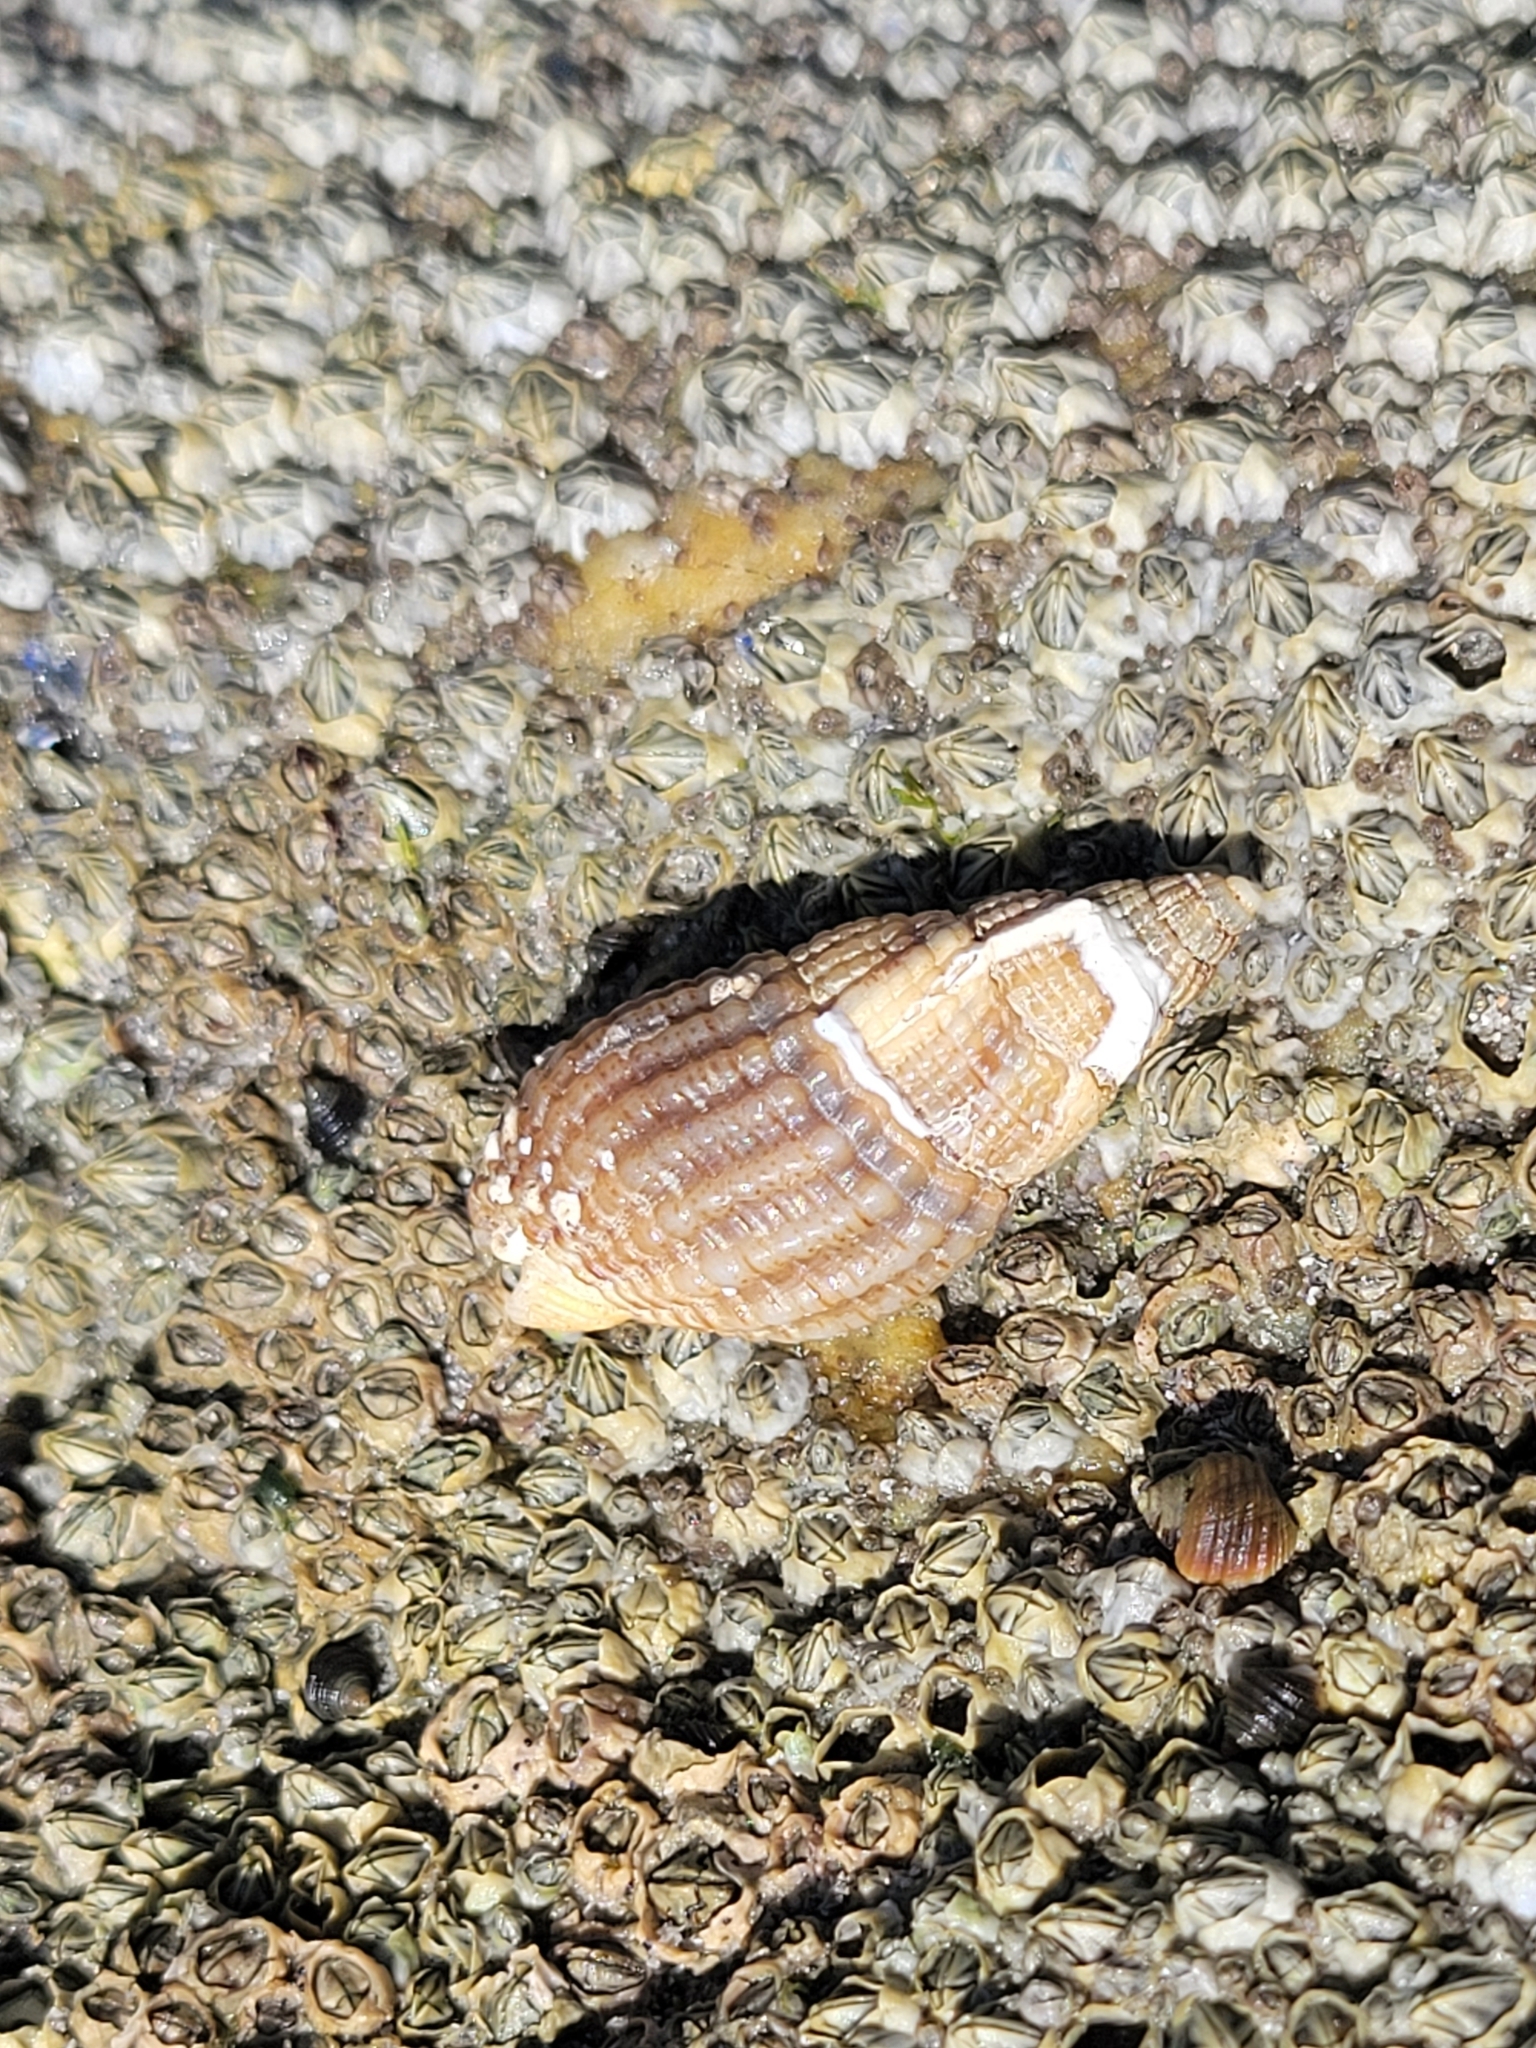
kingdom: Animalia
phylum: Mollusca
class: Gastropoda
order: Neogastropoda
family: Nassariidae
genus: Tritia
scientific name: Tritia reticulata
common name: Netted dog whelk
